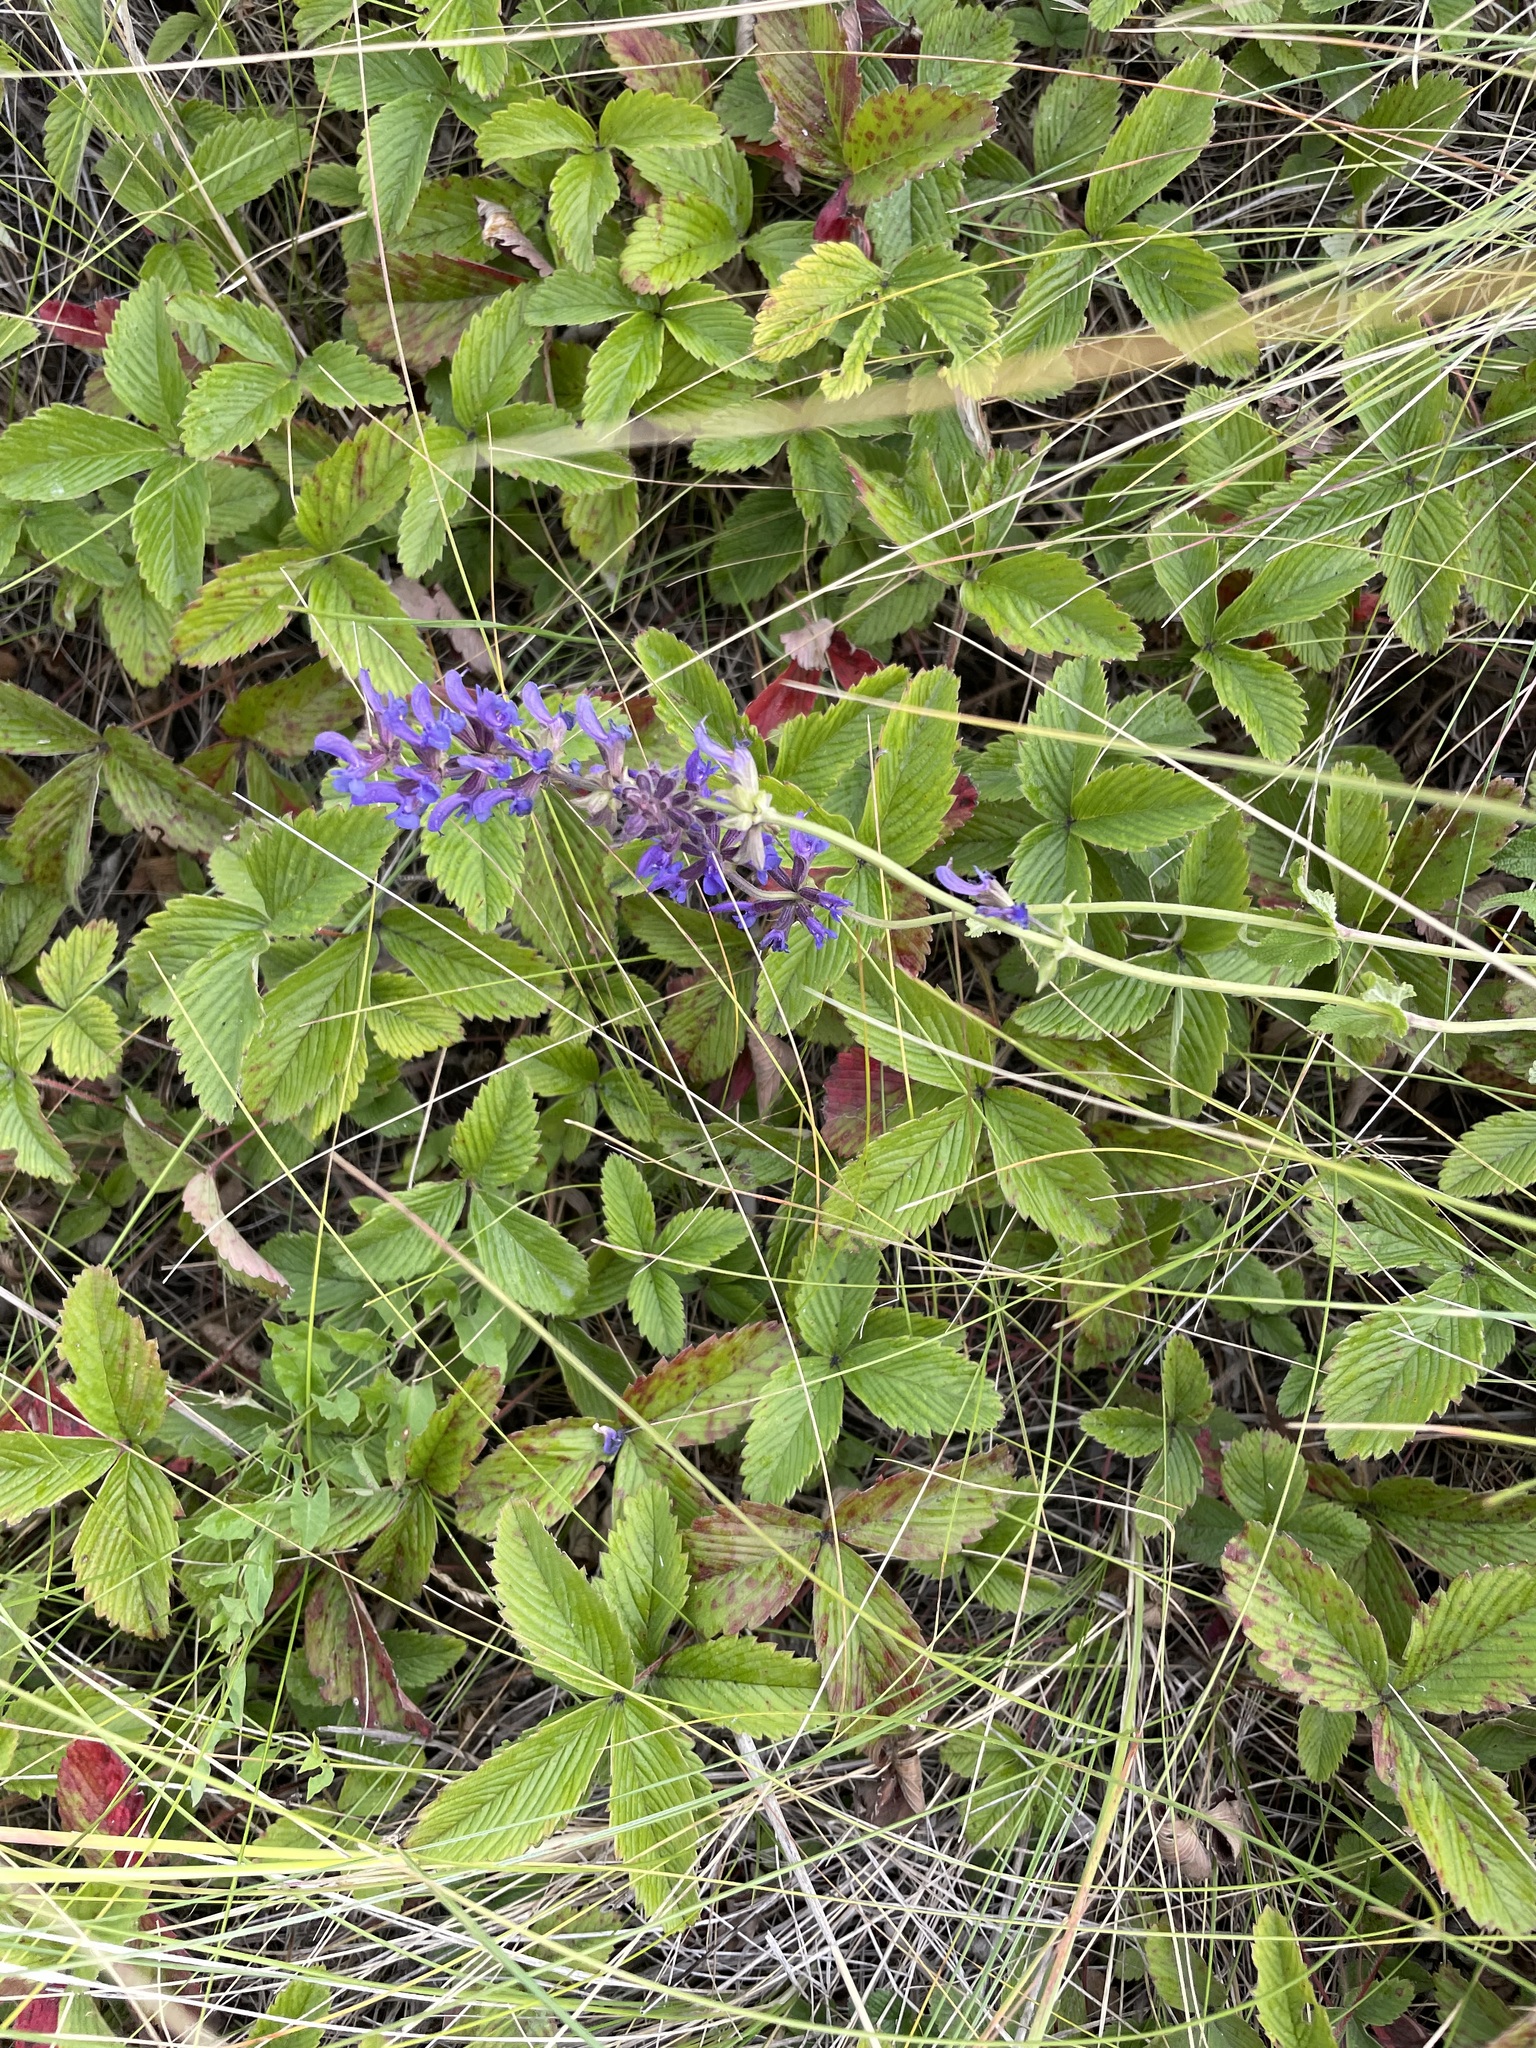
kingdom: Plantae
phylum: Tracheophyta
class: Magnoliopsida
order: Lamiales
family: Lamiaceae
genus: Salvia
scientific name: Salvia dumetorum
